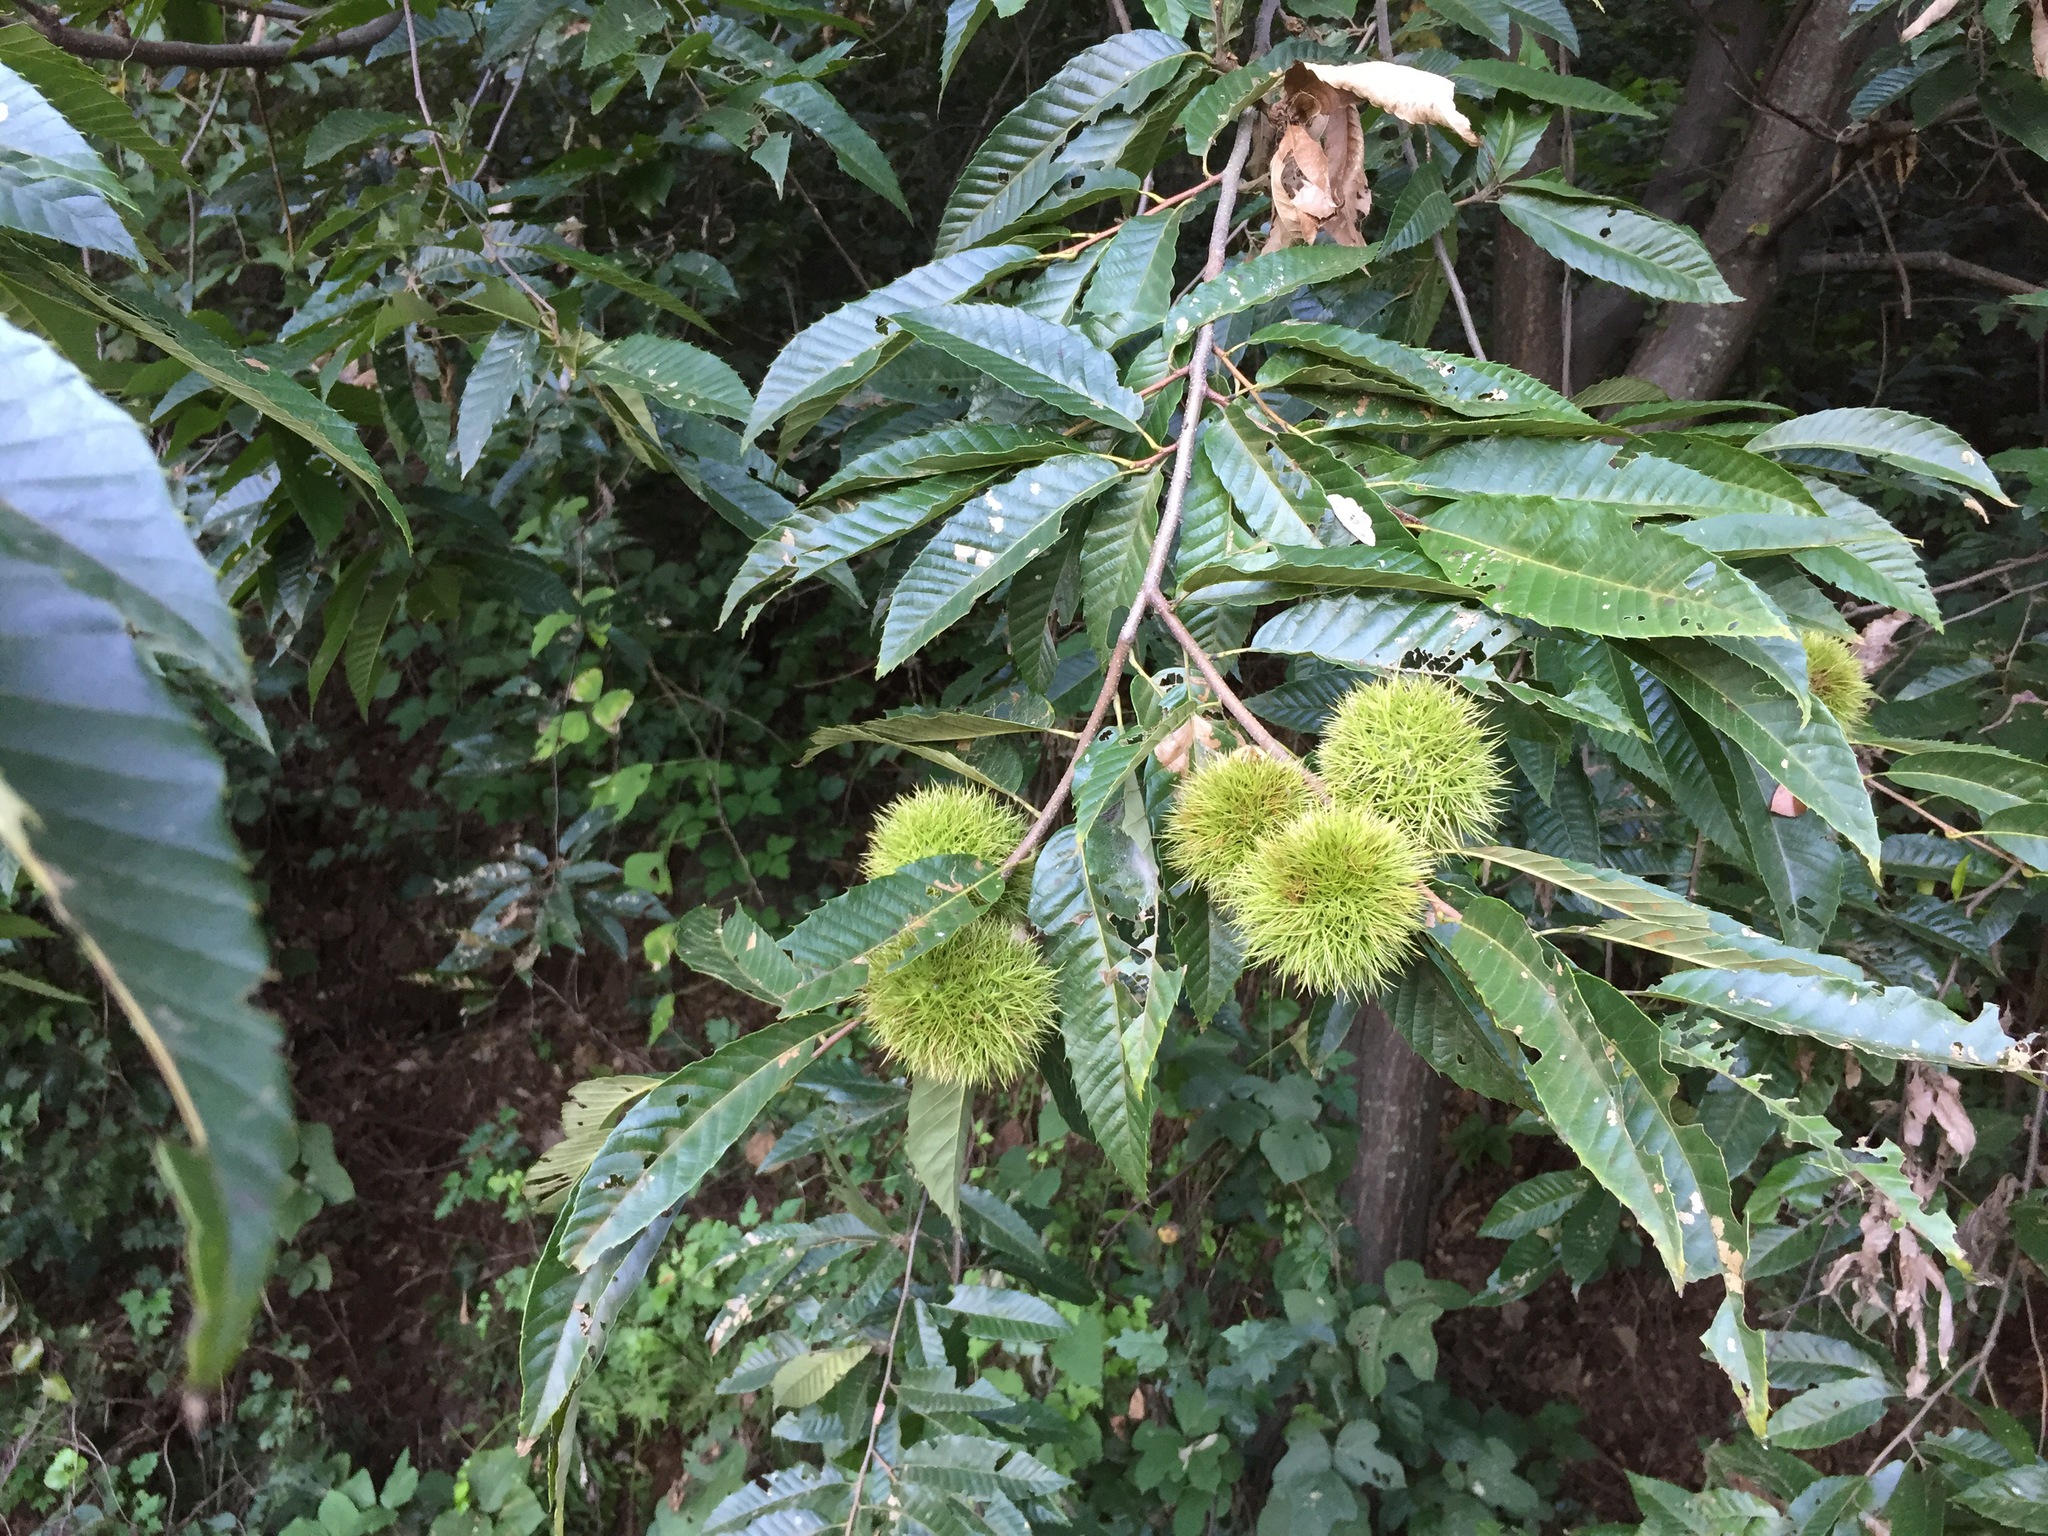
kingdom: Plantae
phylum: Tracheophyta
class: Magnoliopsida
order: Fagales
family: Fagaceae
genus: Castanea
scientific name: Castanea crenata
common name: Japanese chestnut
